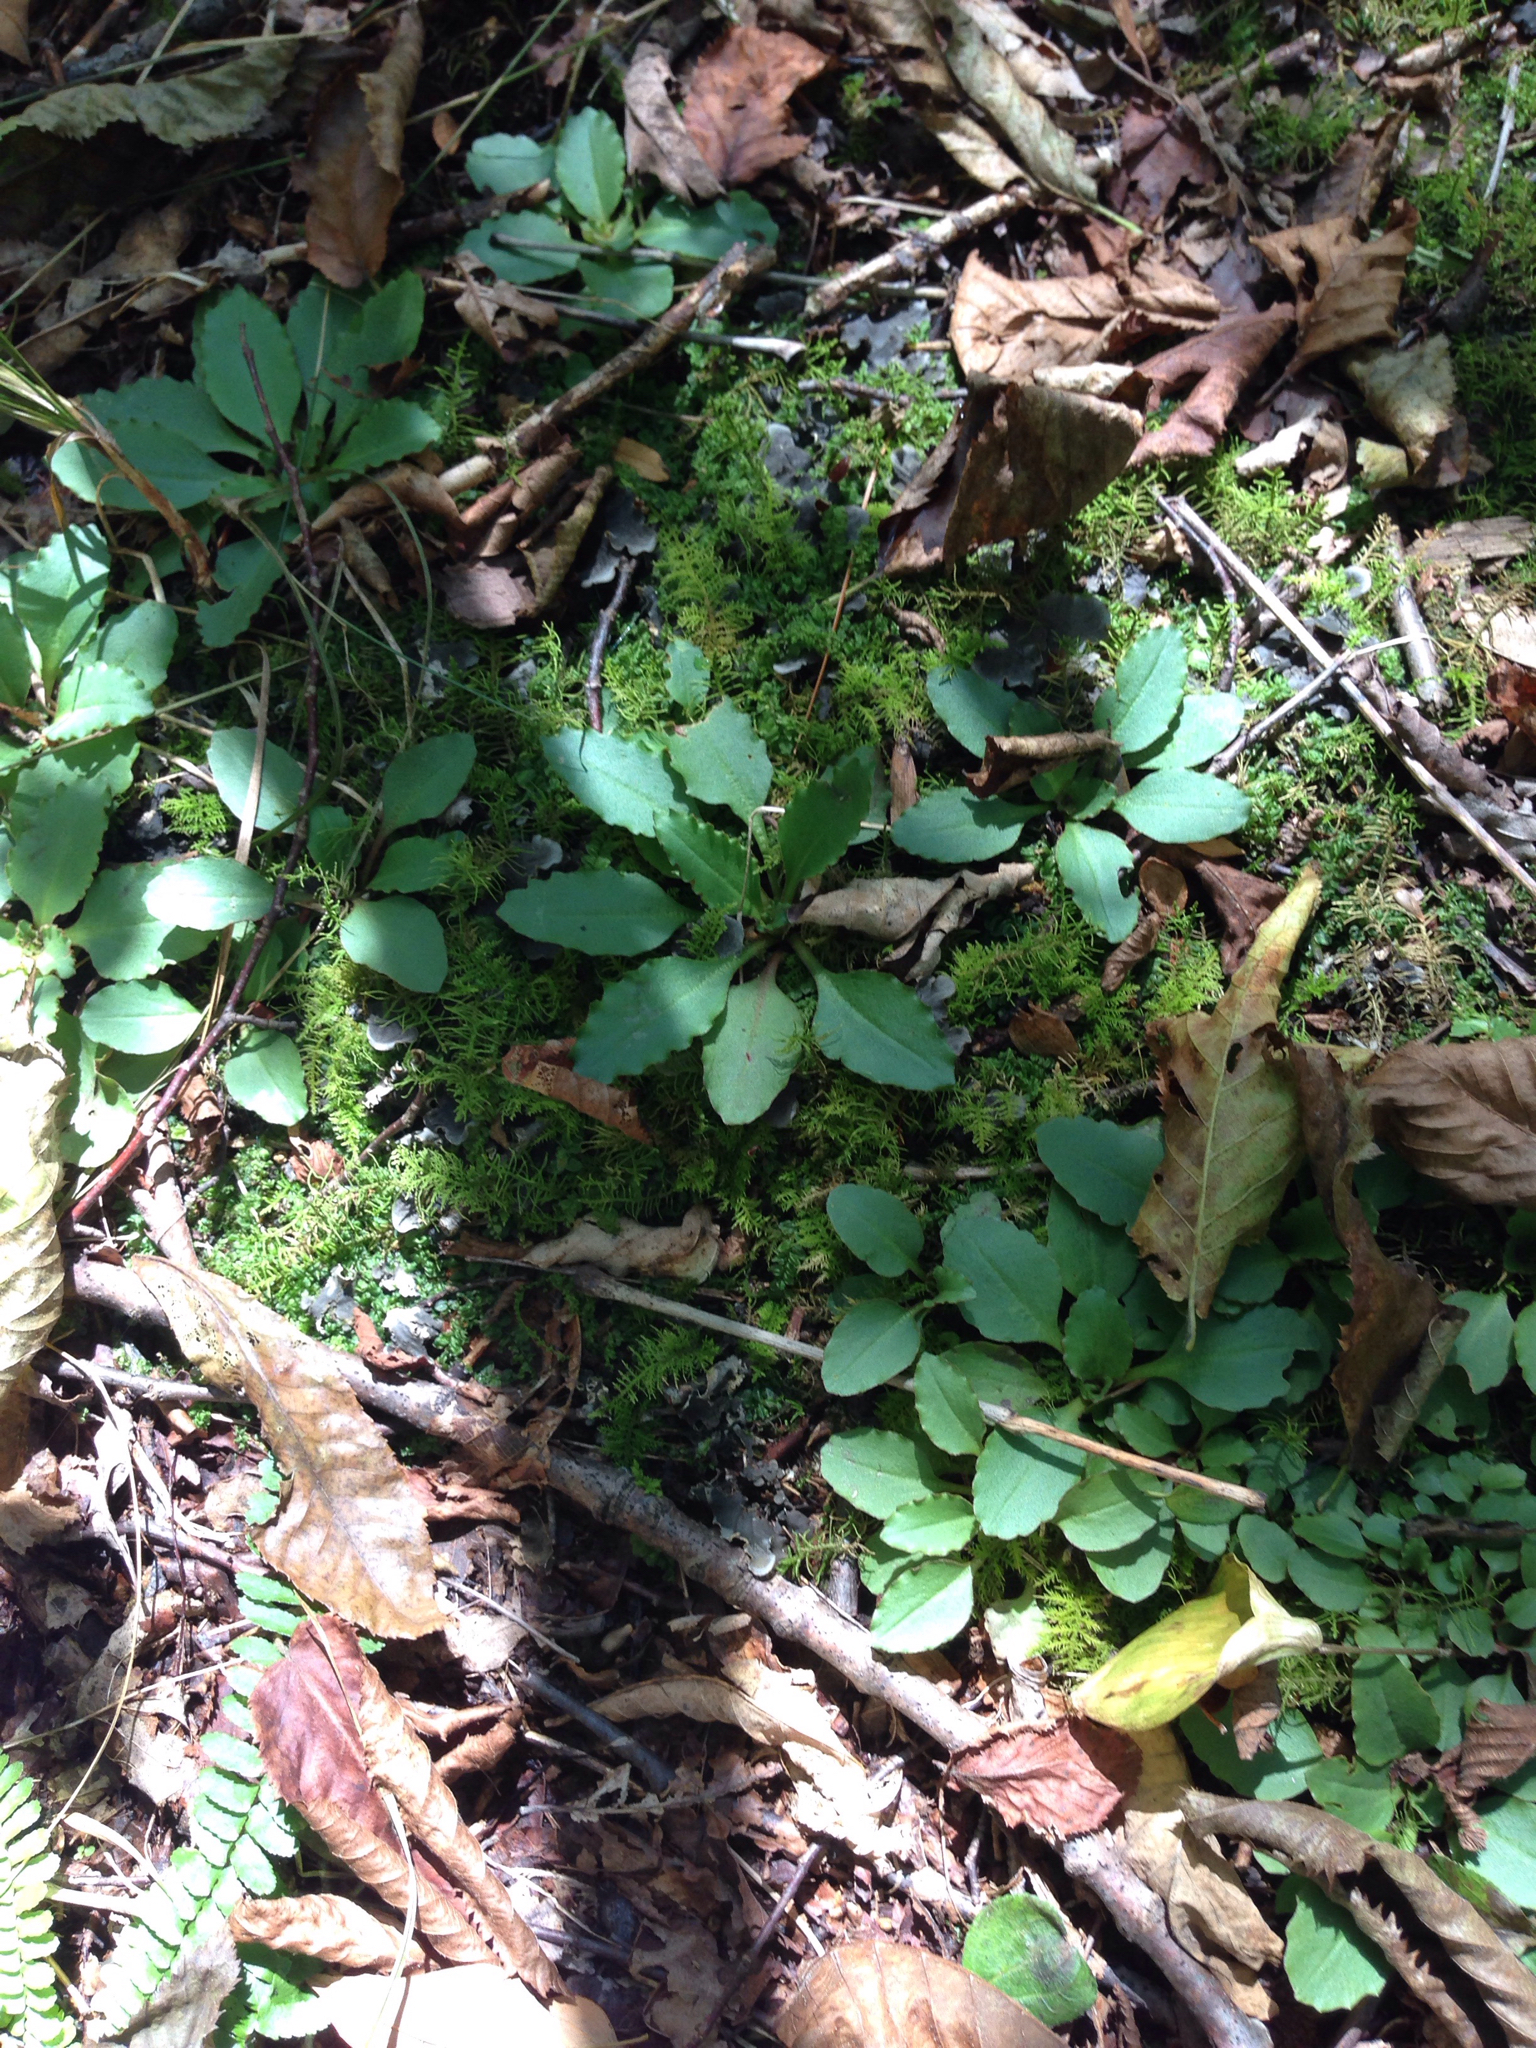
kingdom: Plantae
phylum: Tracheophyta
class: Magnoliopsida
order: Saxifragales
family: Saxifragaceae
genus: Micranthes
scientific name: Micranthes virginiensis
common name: Early saxifrage
